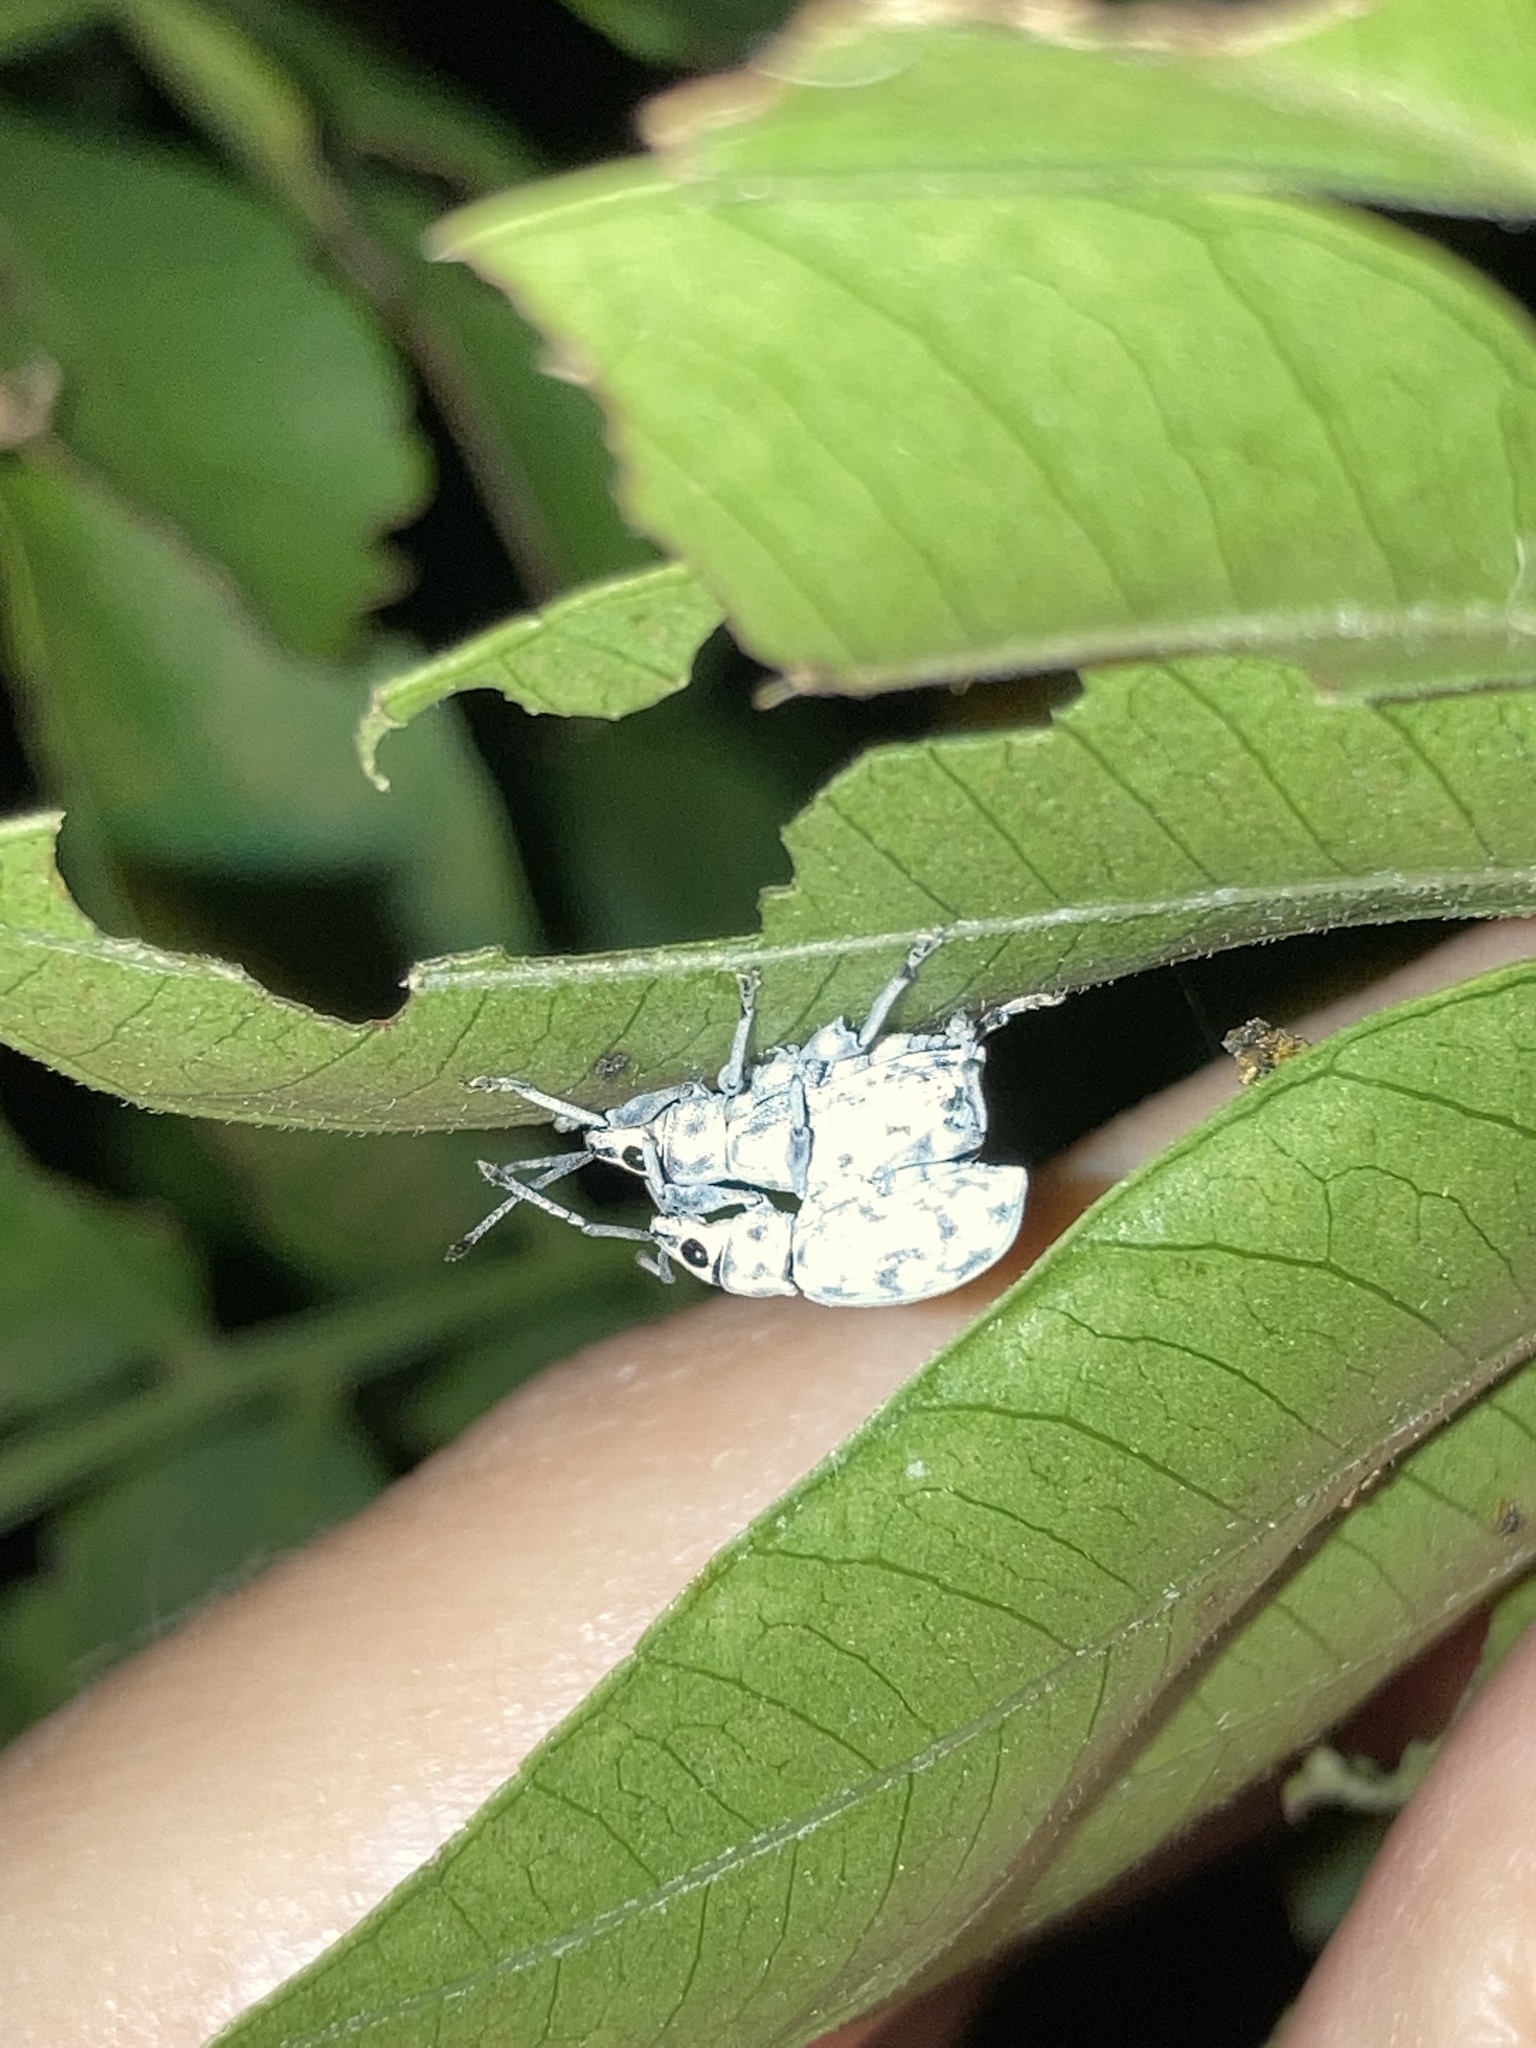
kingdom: Animalia
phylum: Arthropoda
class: Insecta
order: Coleoptera
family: Curculionidae
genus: Myllocerus
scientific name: Myllocerus undecimpustulatus
